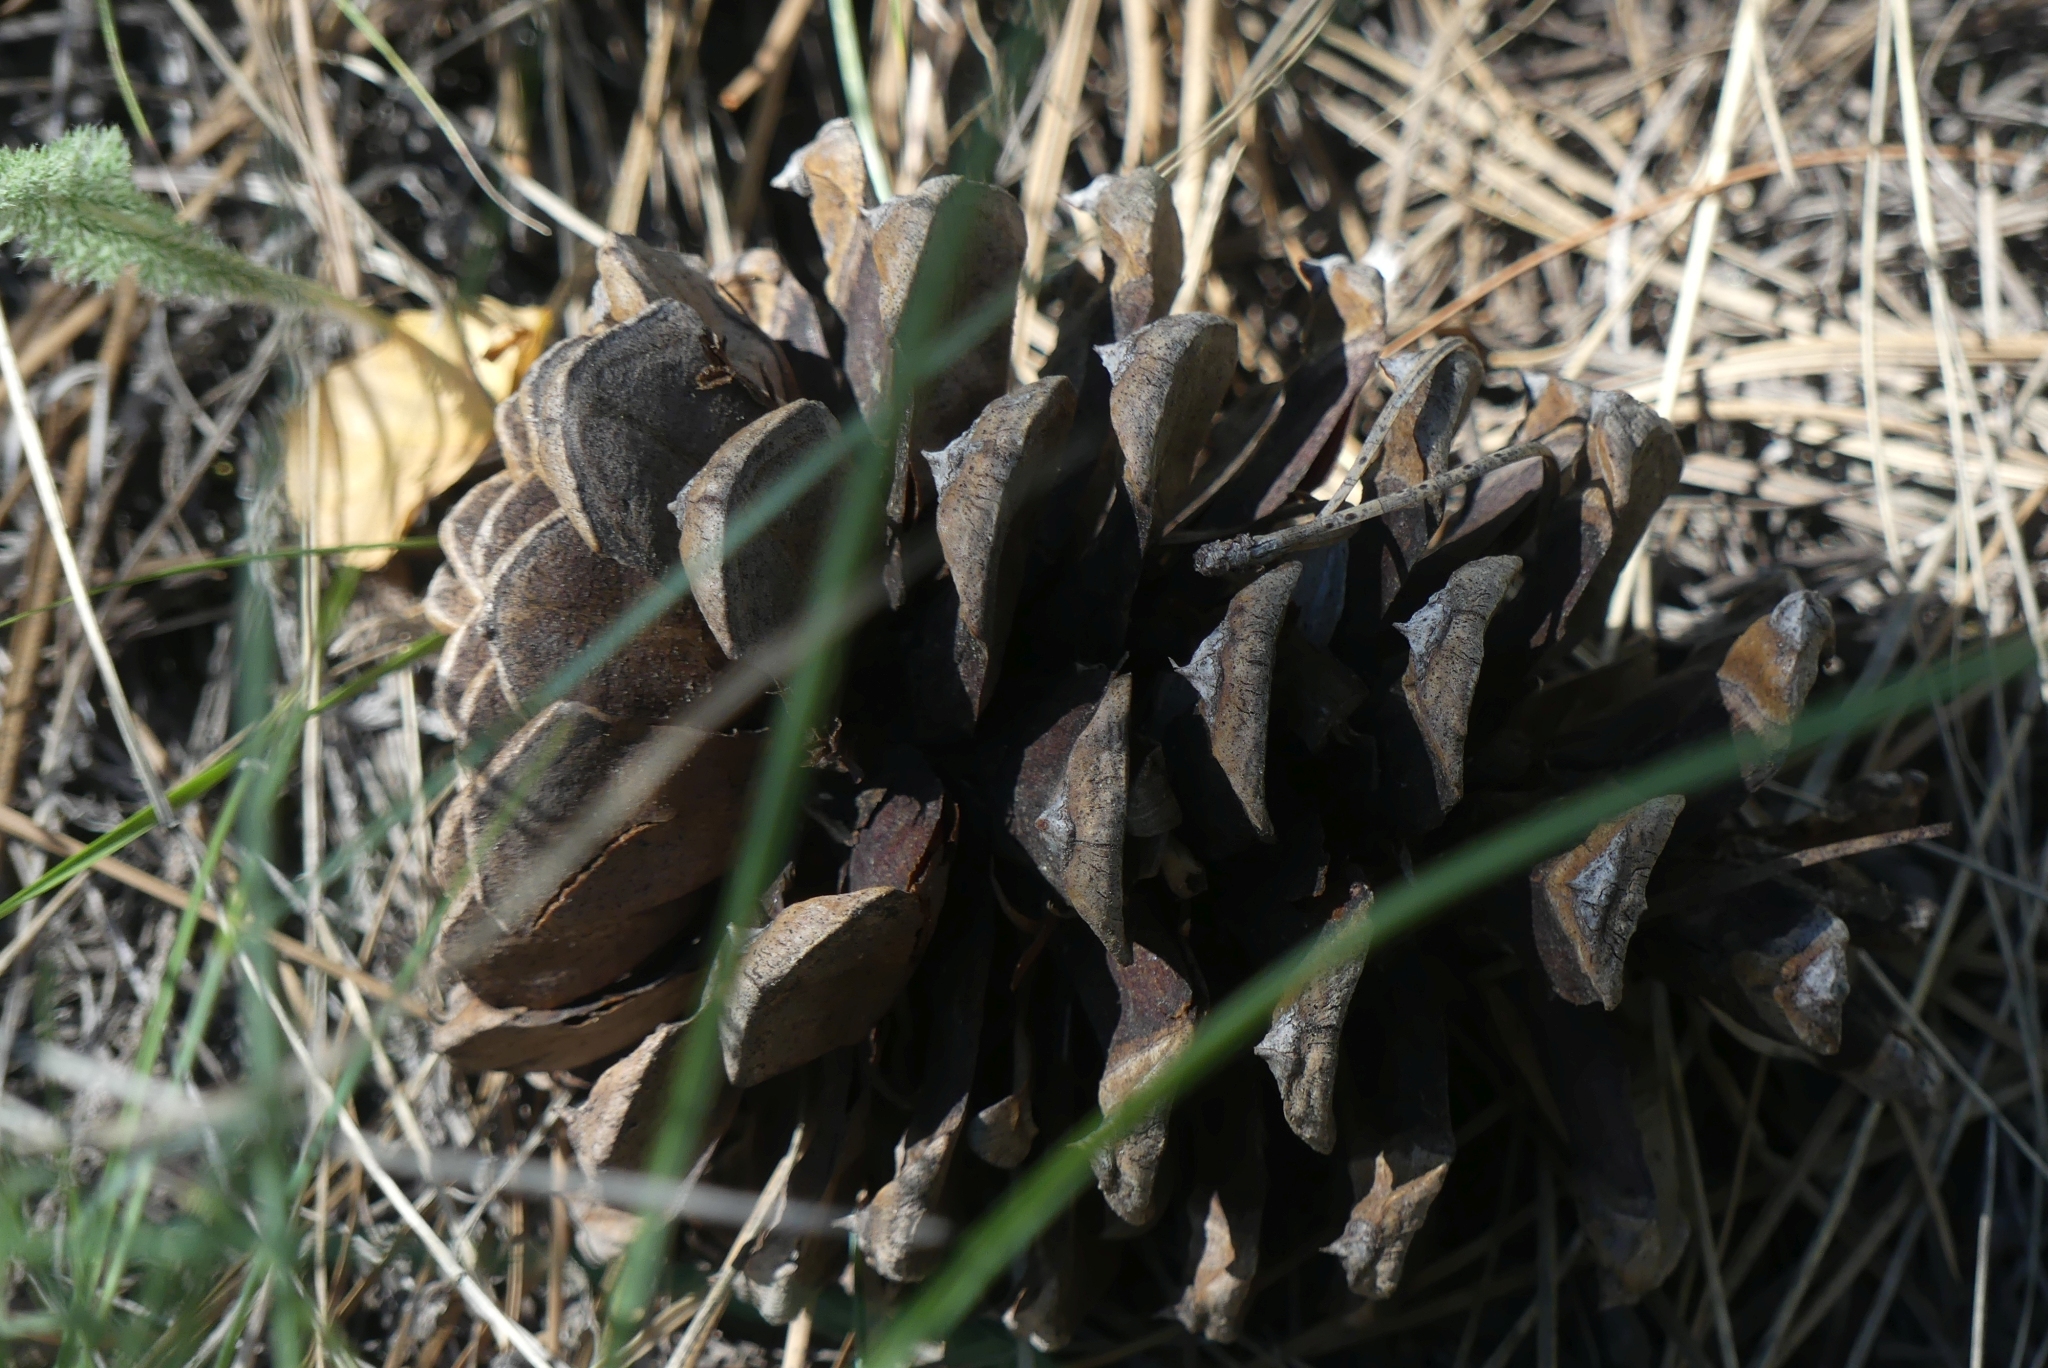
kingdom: Plantae
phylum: Tracheophyta
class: Pinopsida
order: Pinales
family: Pinaceae
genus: Pinus
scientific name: Pinus ponderosa
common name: Western yellow-pine
